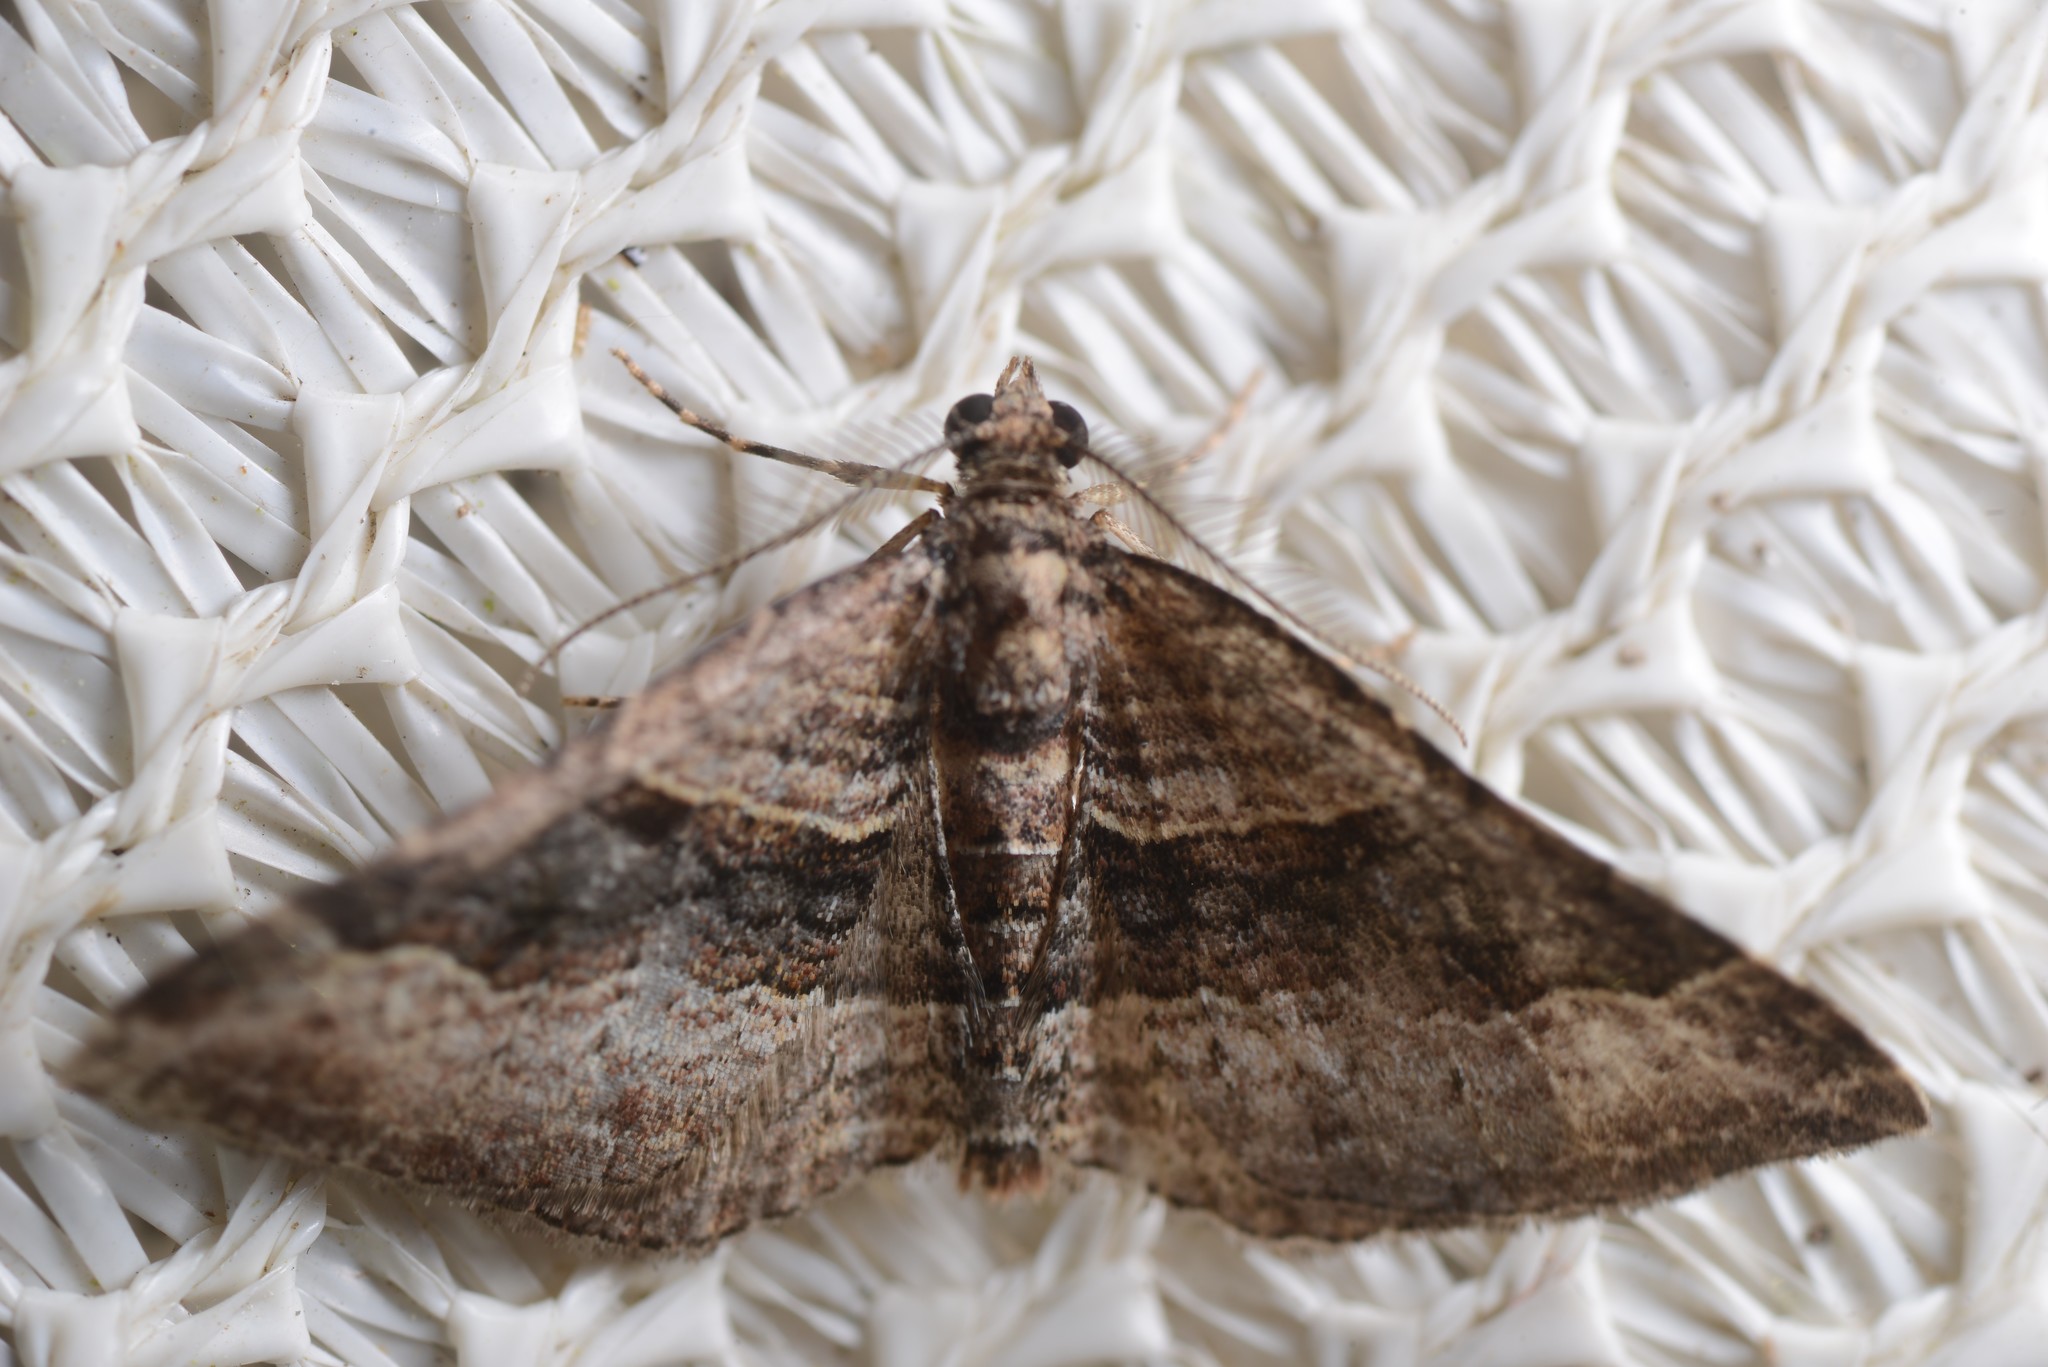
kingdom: Animalia
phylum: Arthropoda
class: Insecta
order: Lepidoptera
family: Geometridae
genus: Epyaxa
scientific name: Epyaxa lucidata
